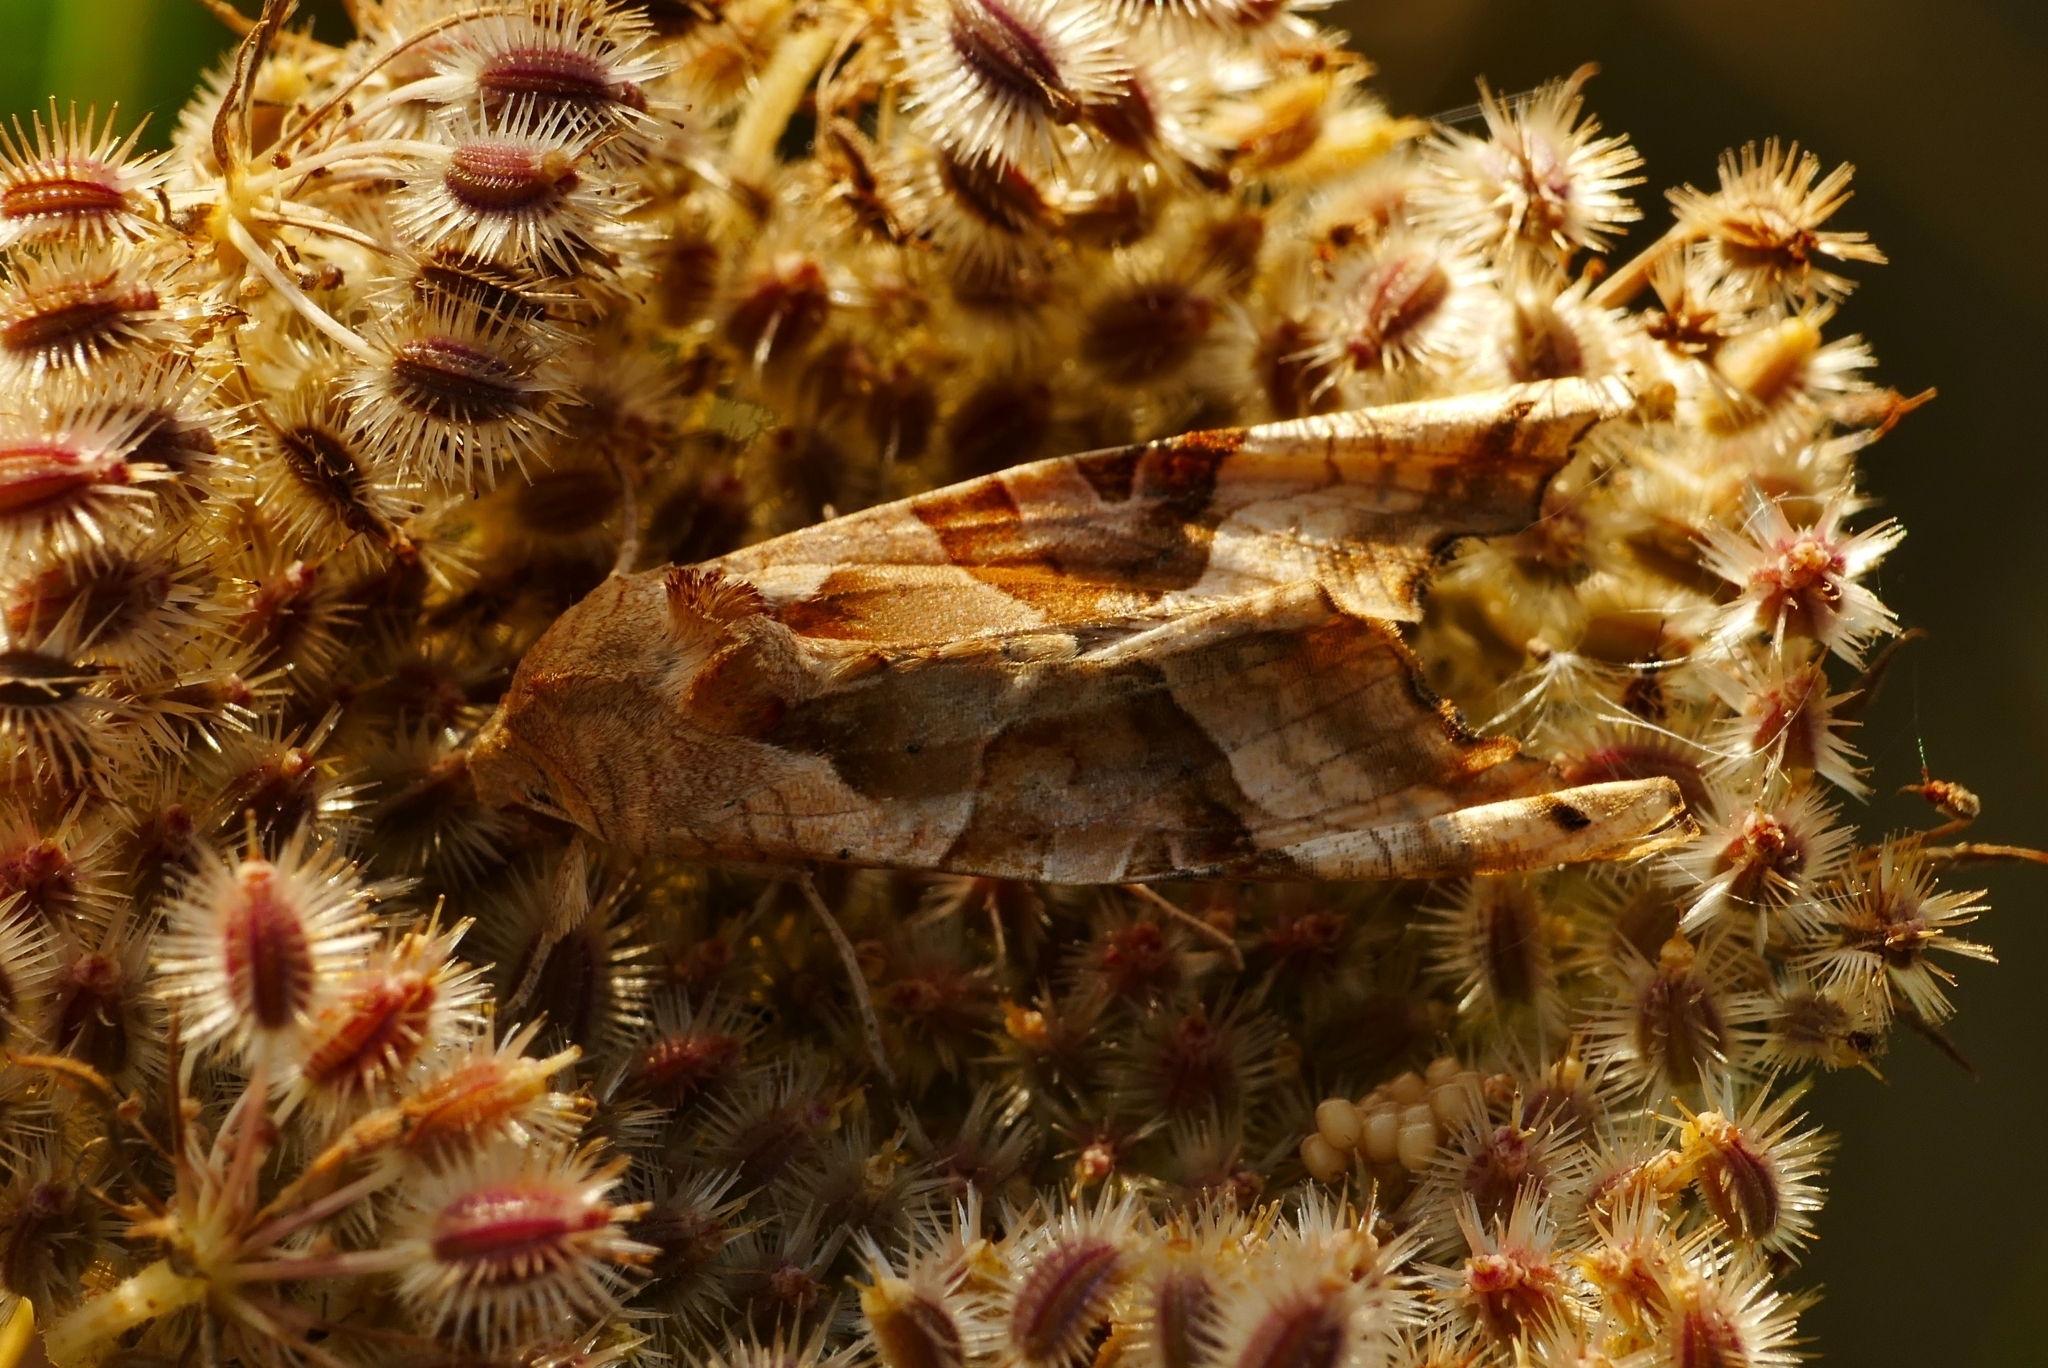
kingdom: Animalia
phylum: Arthropoda
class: Insecta
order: Lepidoptera
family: Noctuidae
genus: Phlogophora
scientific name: Phlogophora meticulosa
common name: Angle shades
